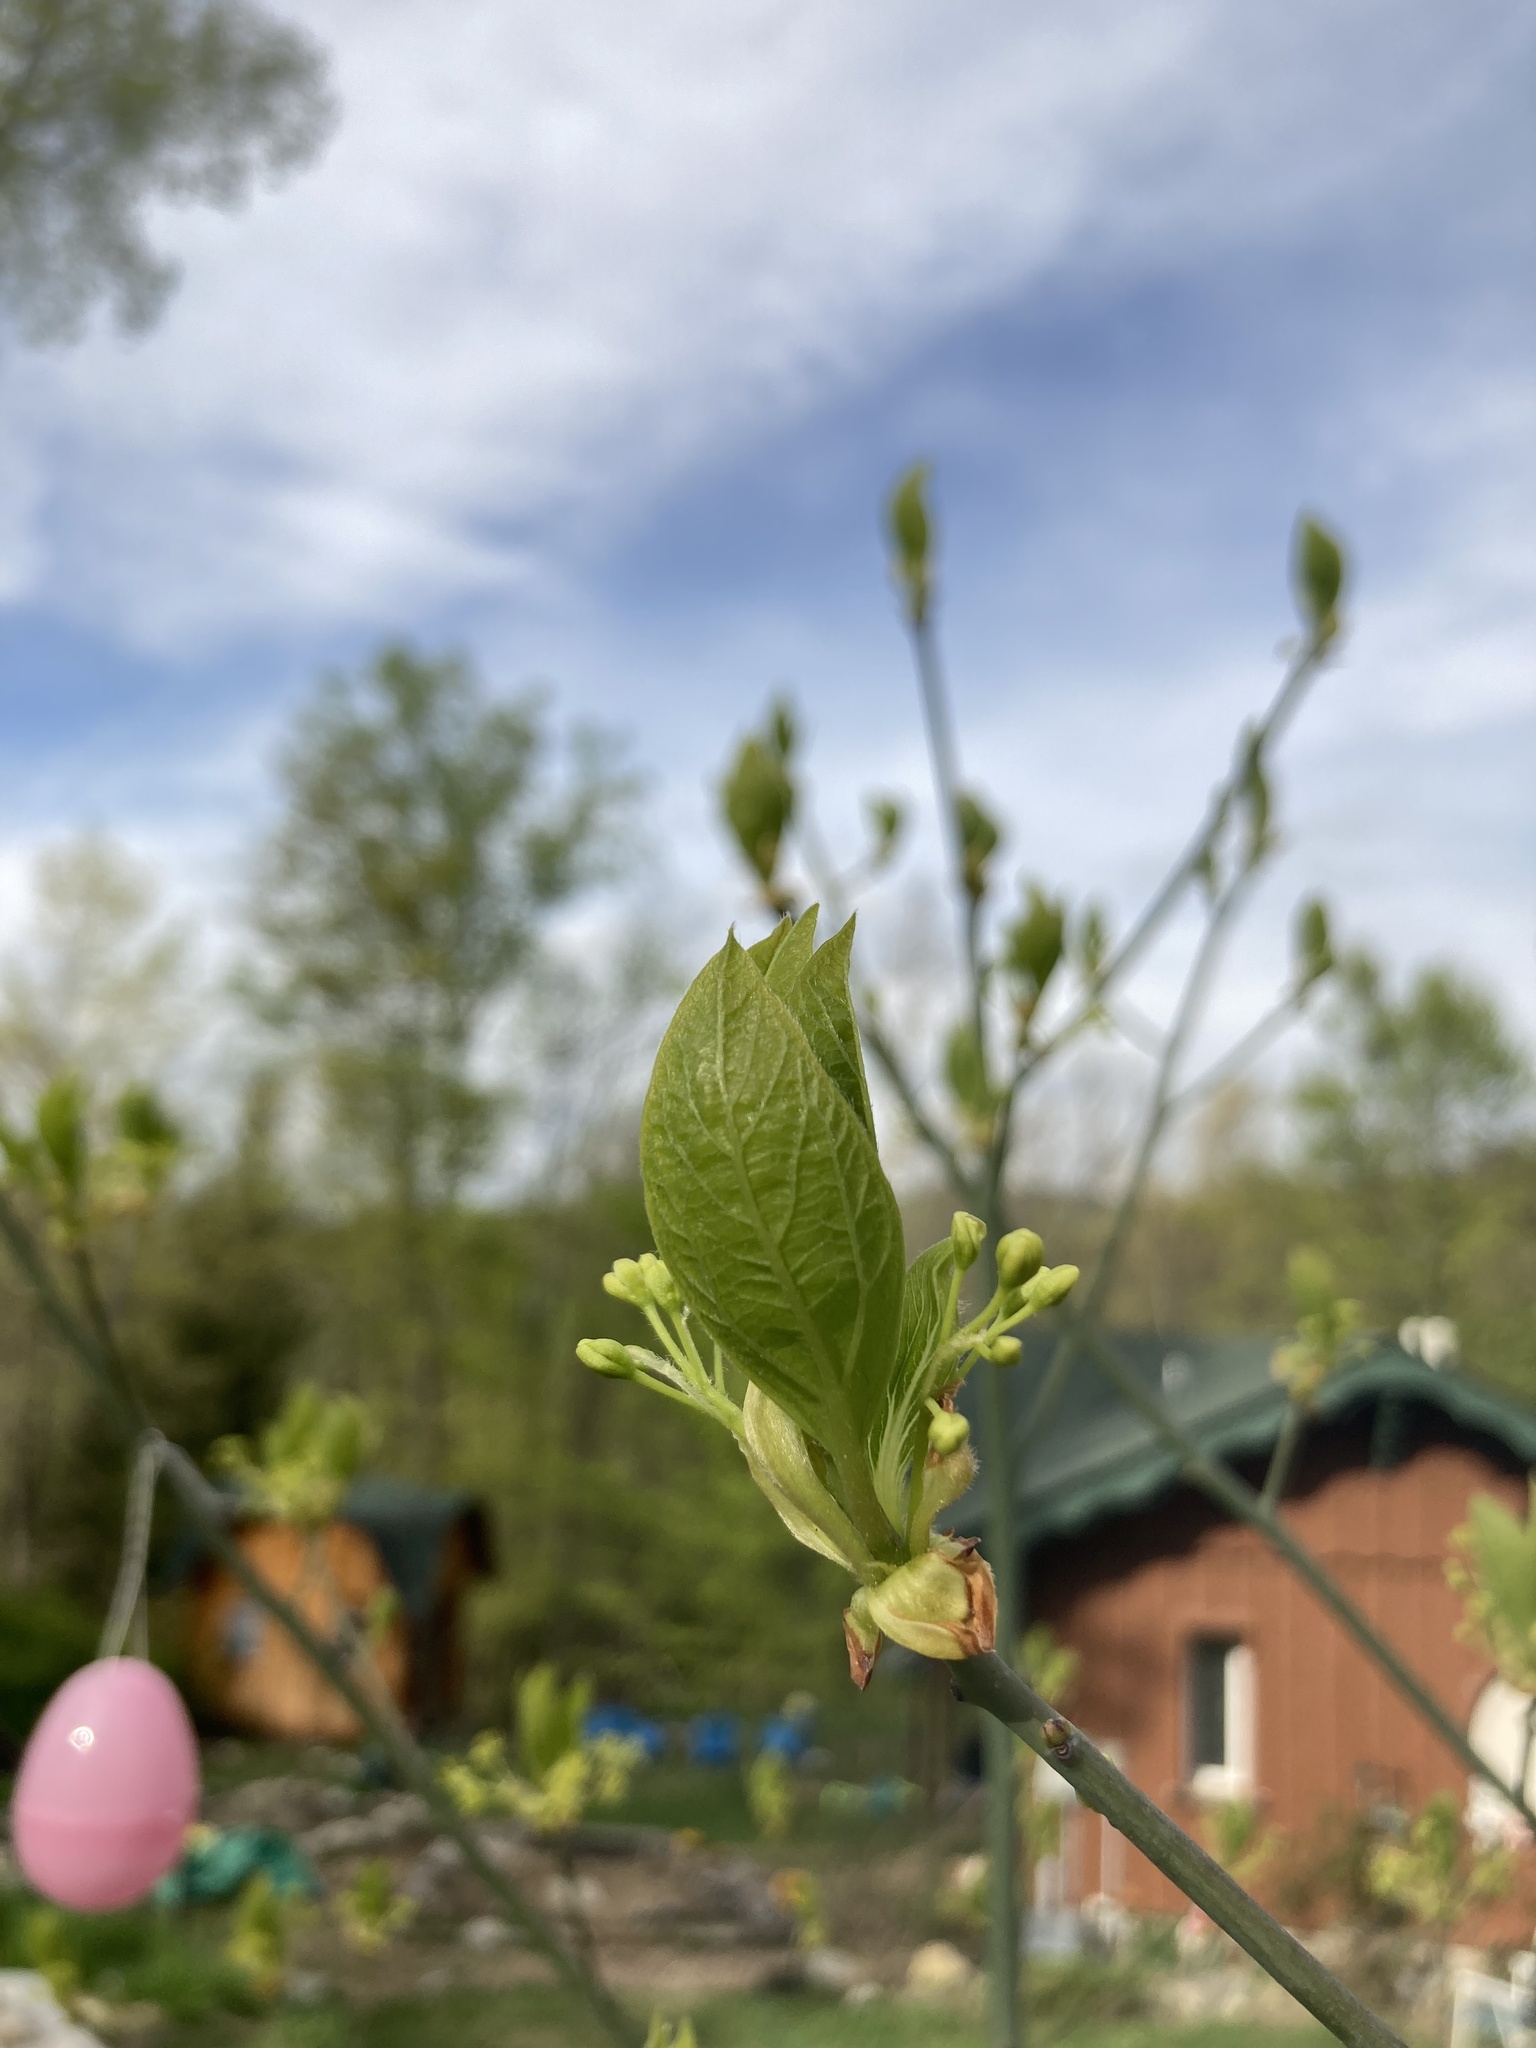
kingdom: Plantae
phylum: Tracheophyta
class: Magnoliopsida
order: Laurales
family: Lauraceae
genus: Sassafras
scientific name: Sassafras albidum
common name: Sassafras
